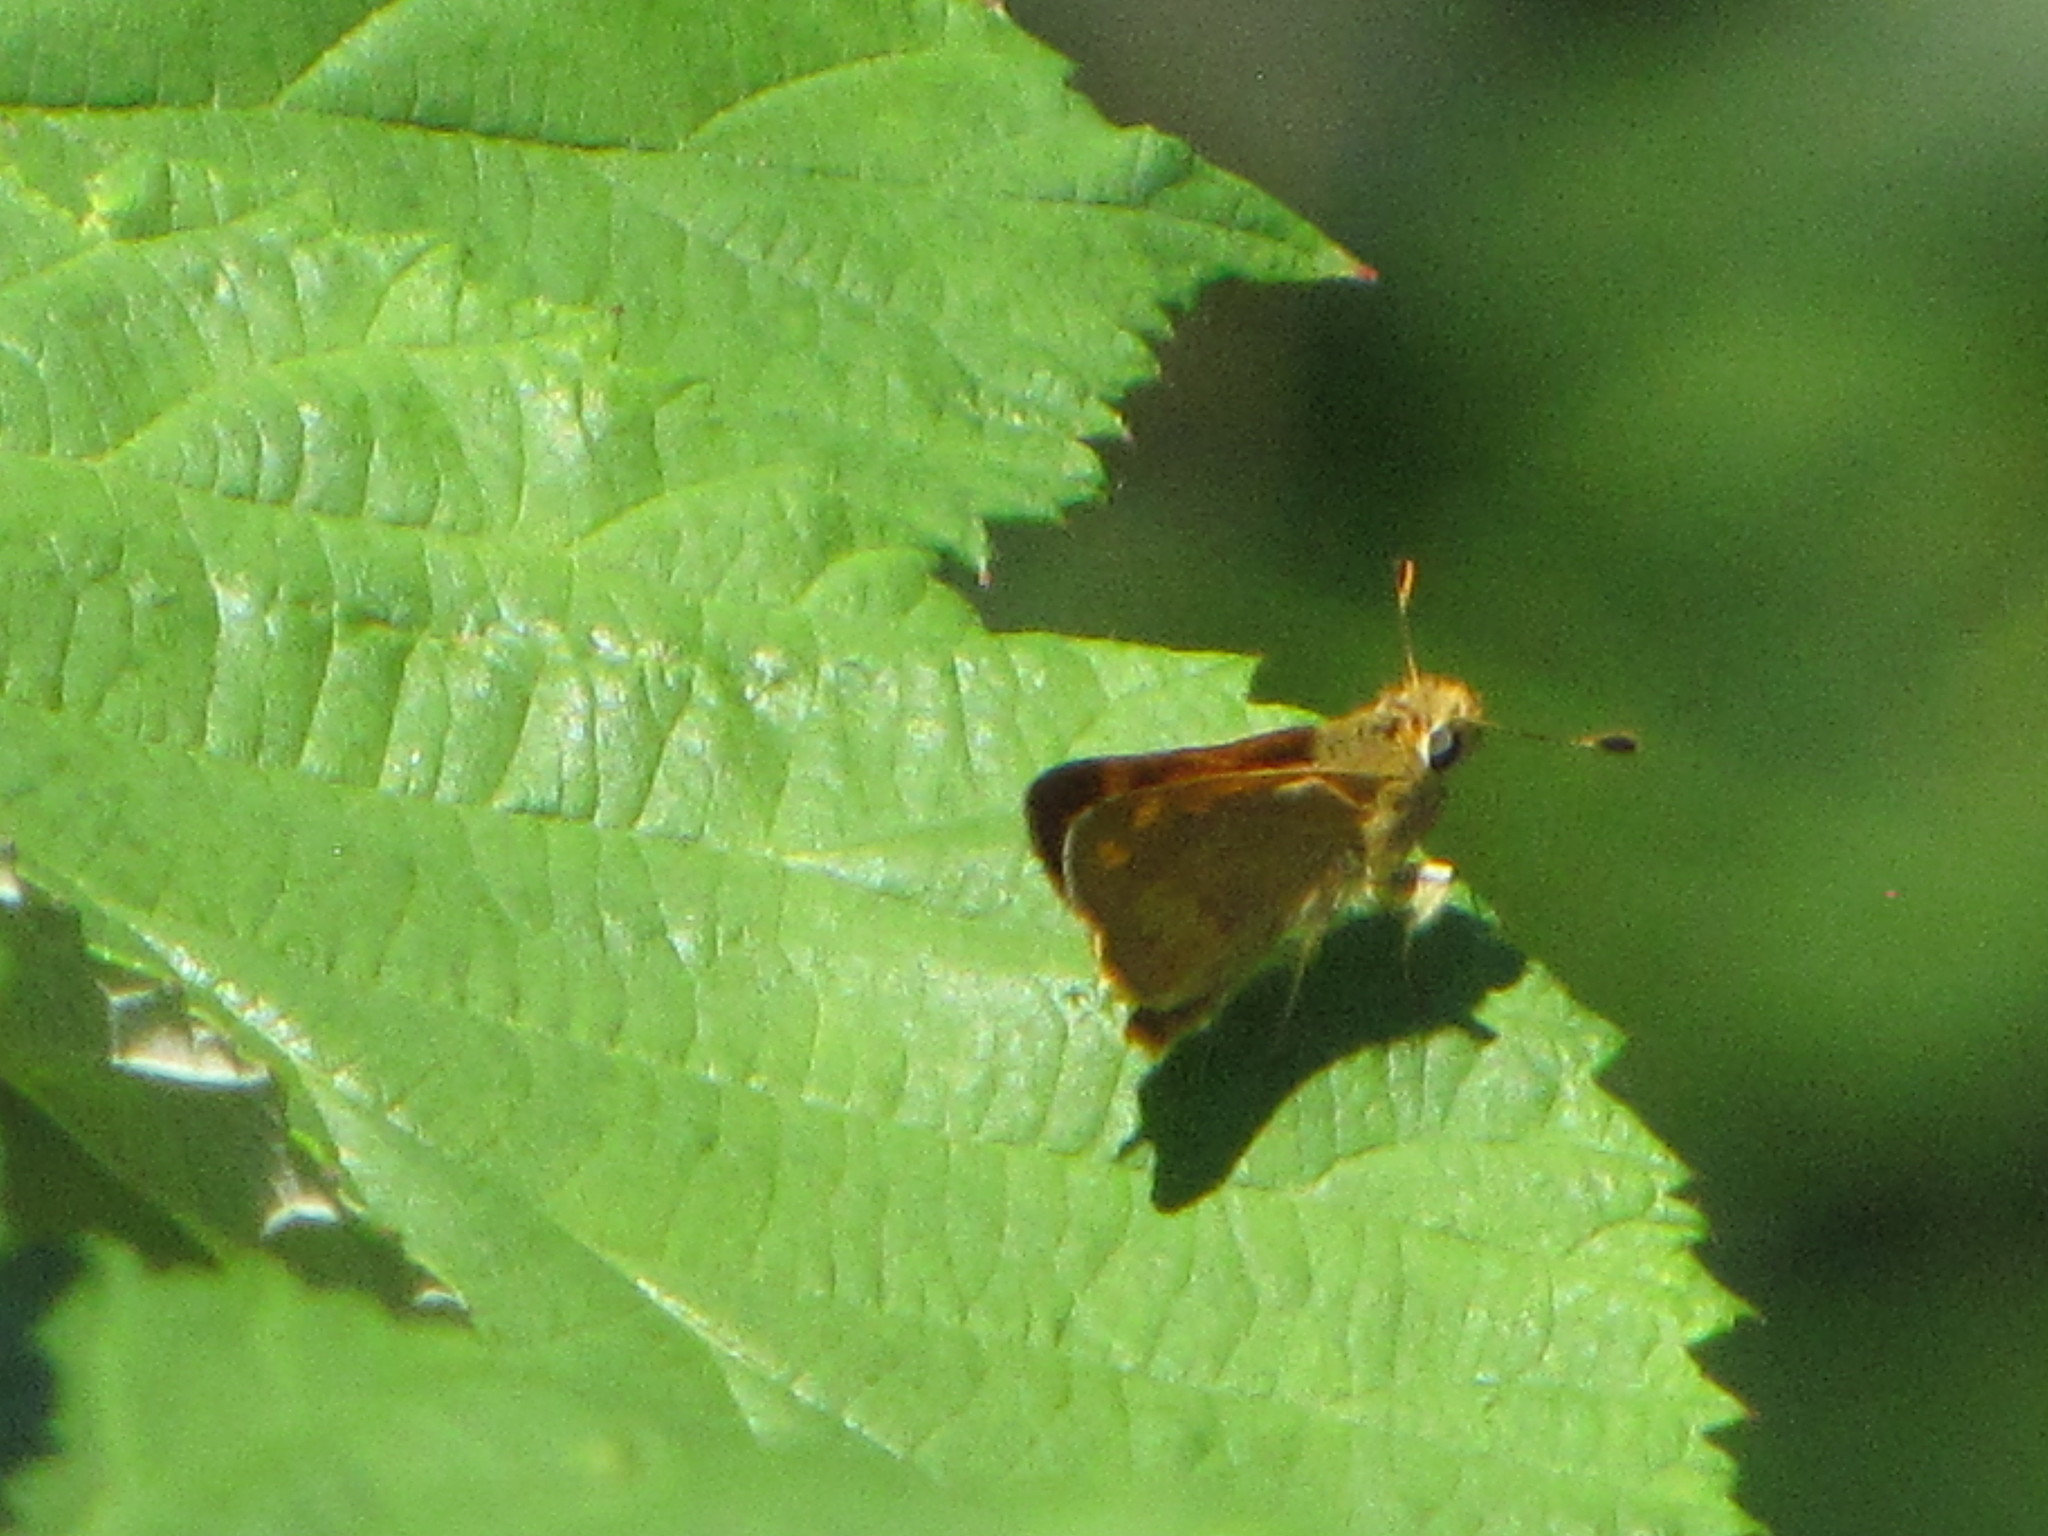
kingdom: Animalia
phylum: Arthropoda
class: Insecta
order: Lepidoptera
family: Hesperiidae
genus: Ochlodes
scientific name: Ochlodes sylvanoides
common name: Woodland skipper
